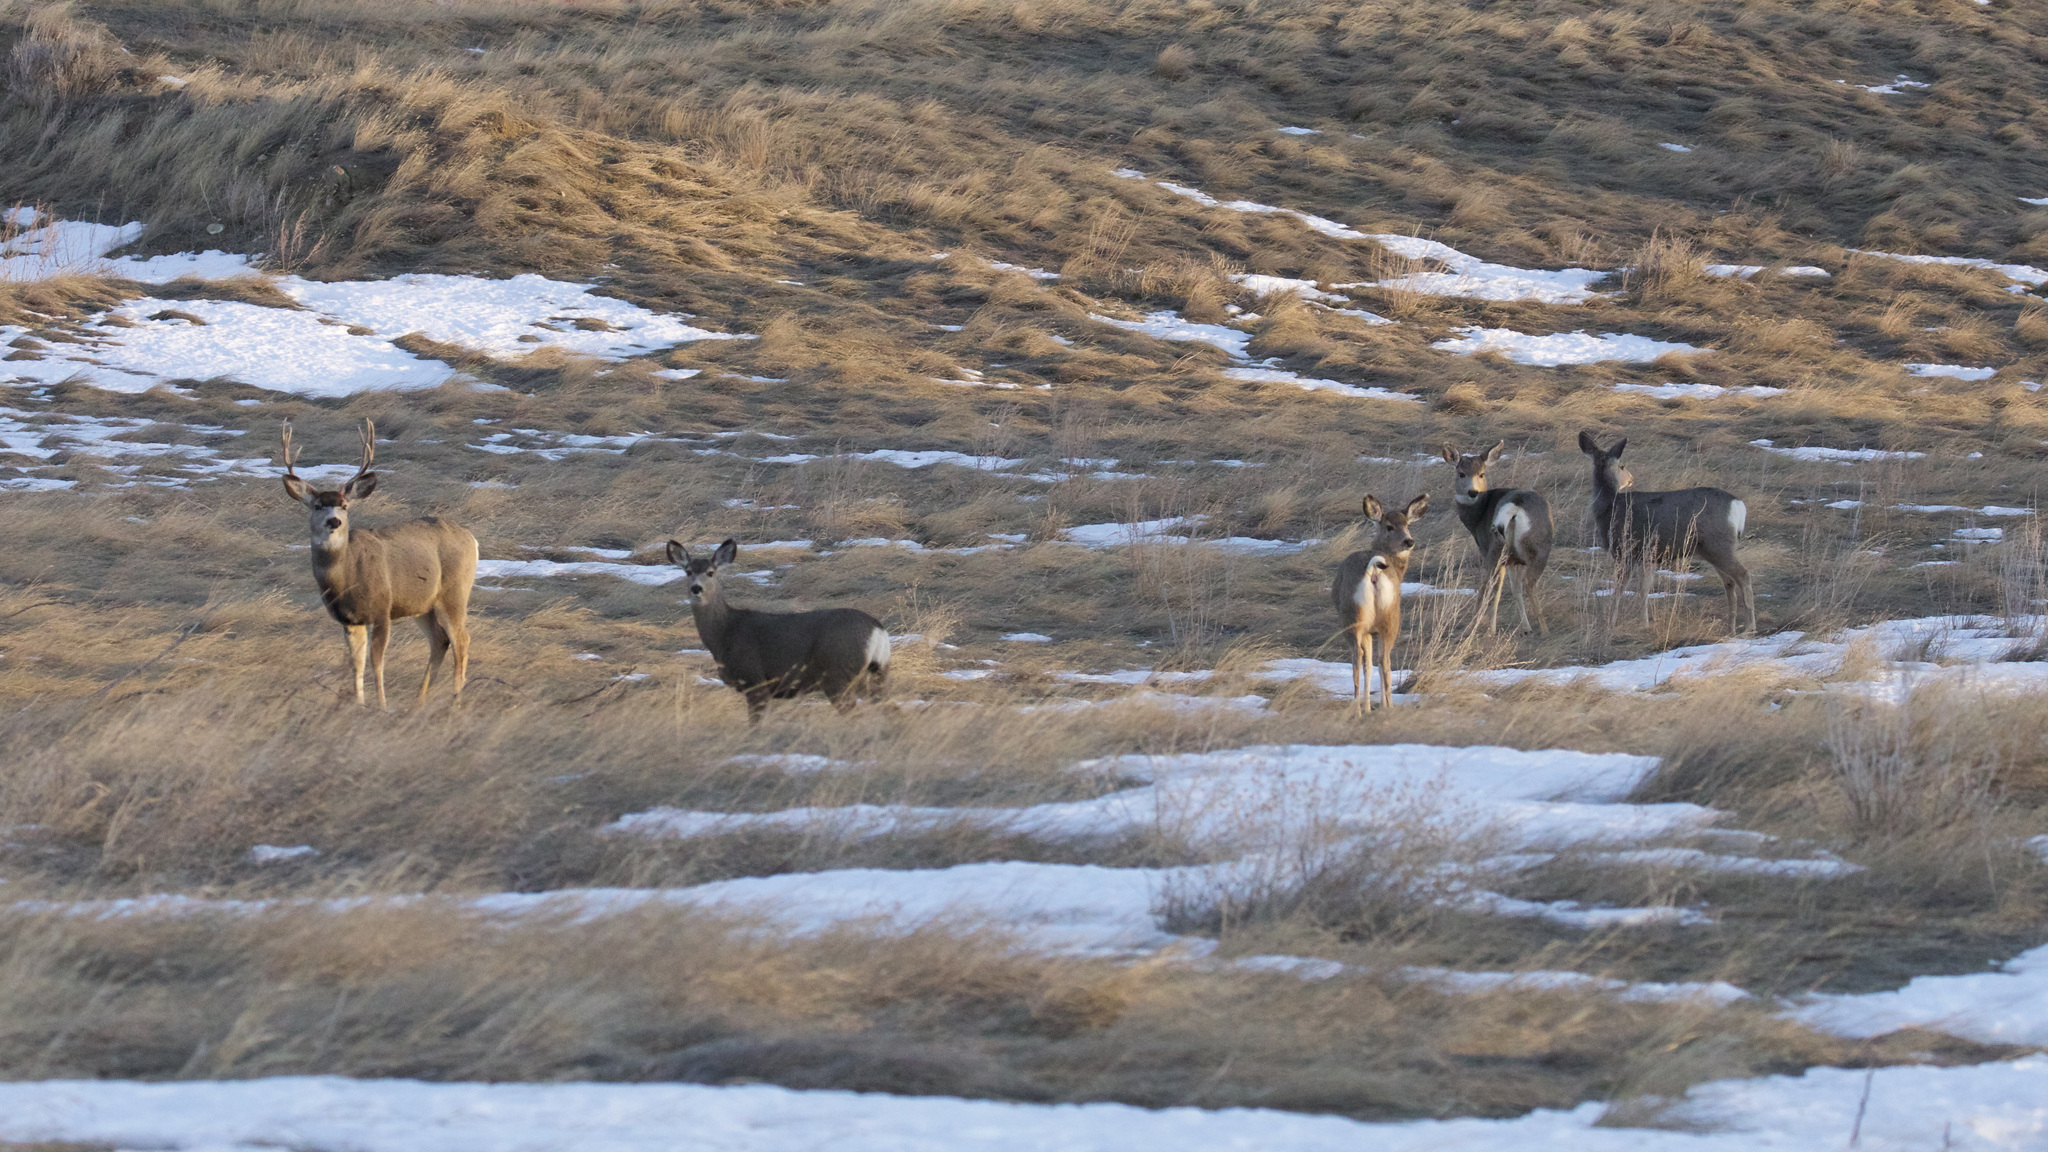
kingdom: Animalia
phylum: Chordata
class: Mammalia
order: Artiodactyla
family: Cervidae
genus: Odocoileus
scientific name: Odocoileus hemionus
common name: Mule deer
